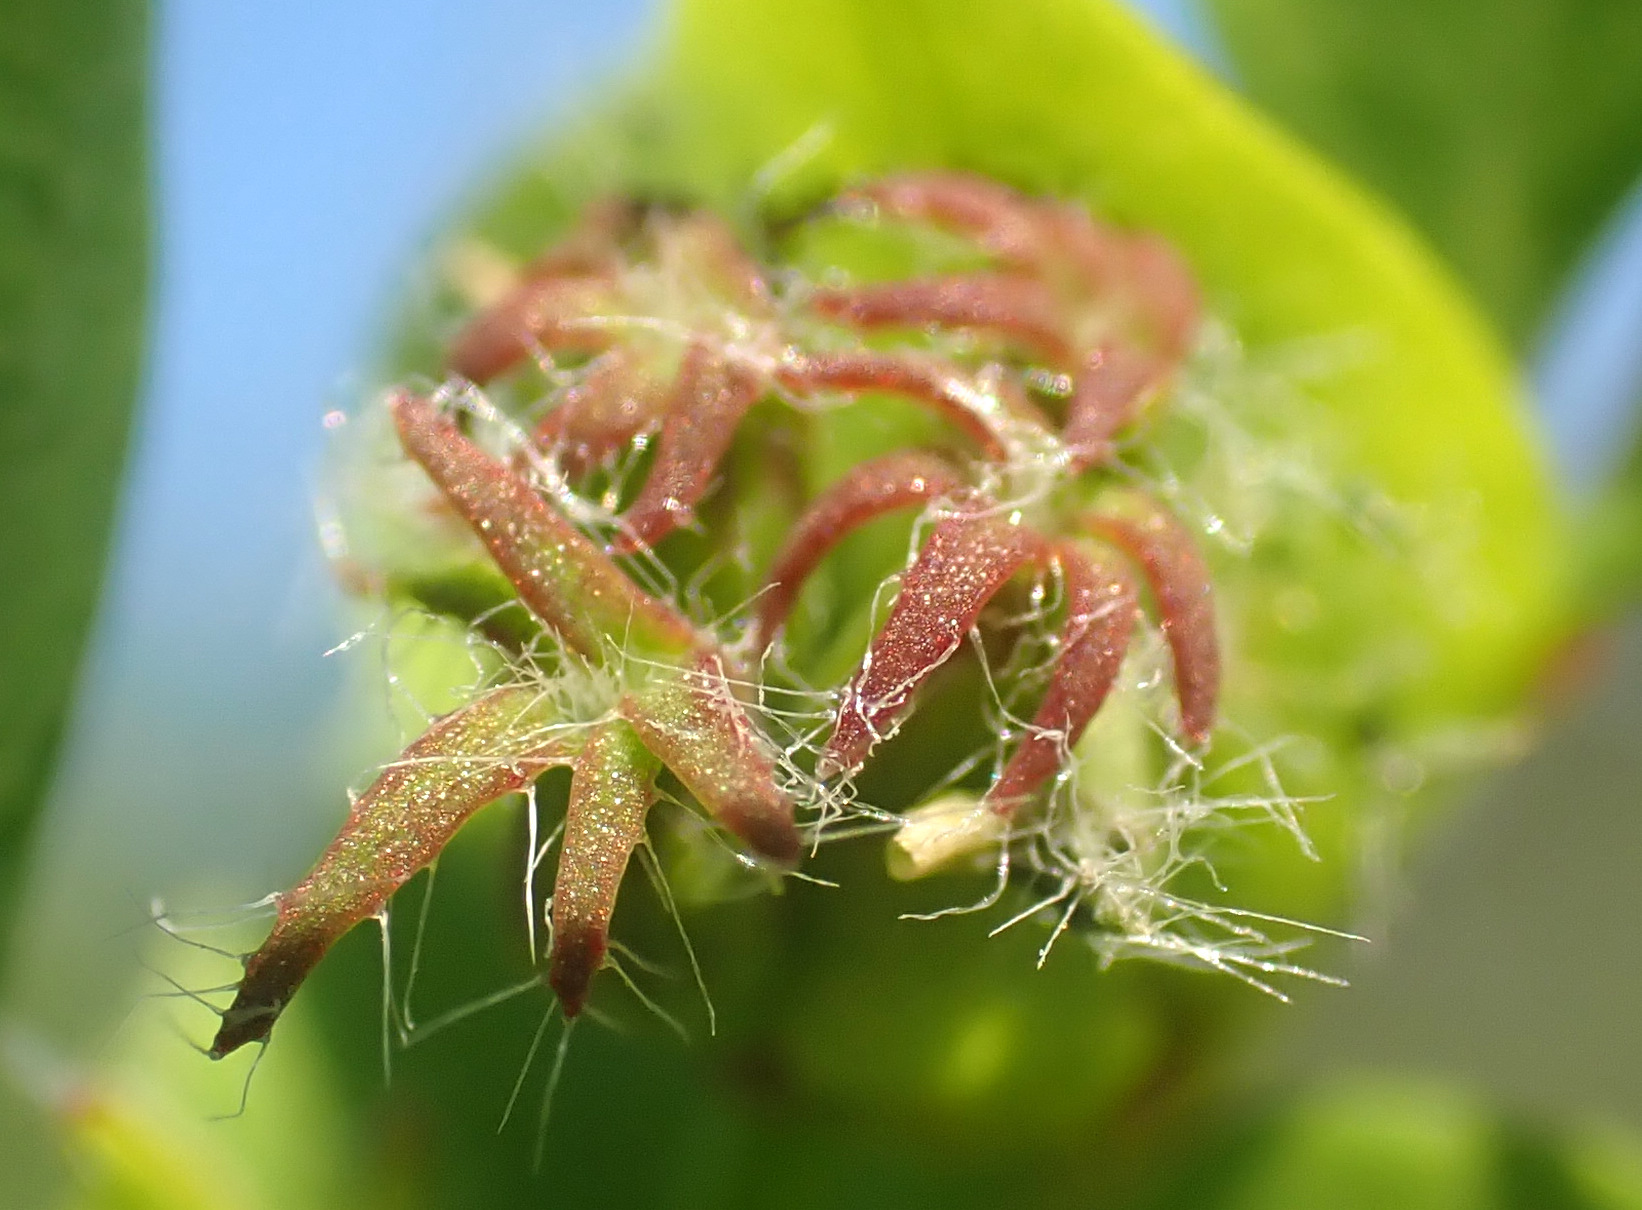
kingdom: Plantae
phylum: Tracheophyta
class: Magnoliopsida
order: Fabales
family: Fabaceae
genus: Lotus
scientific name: Lotus pedunculatus
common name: Greater birdsfoot-trefoil
